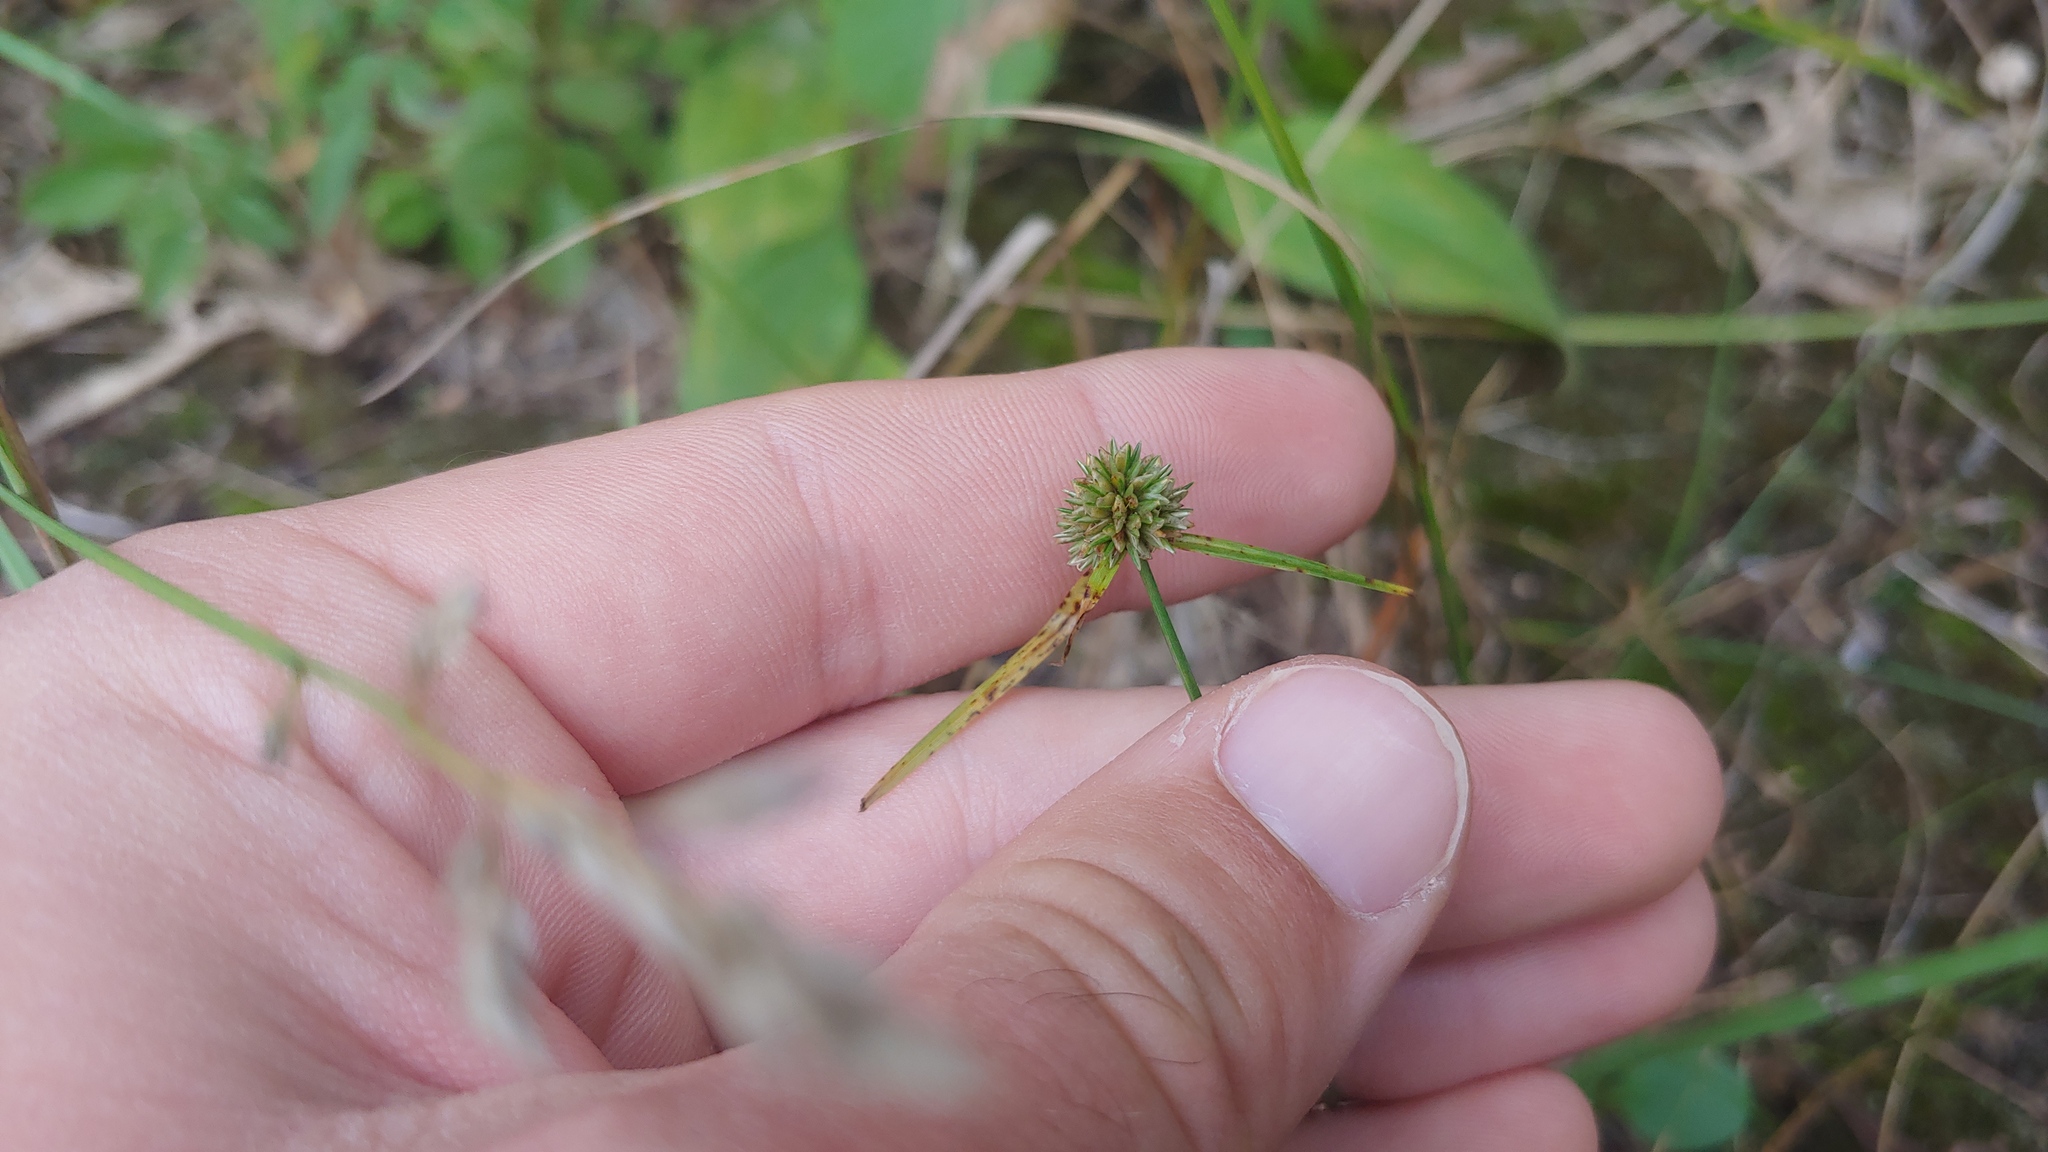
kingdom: Plantae
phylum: Tracheophyta
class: Liliopsida
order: Poales
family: Cyperaceae
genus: Cyperus
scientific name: Cyperus lupulinus
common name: Great plains flatsedge
